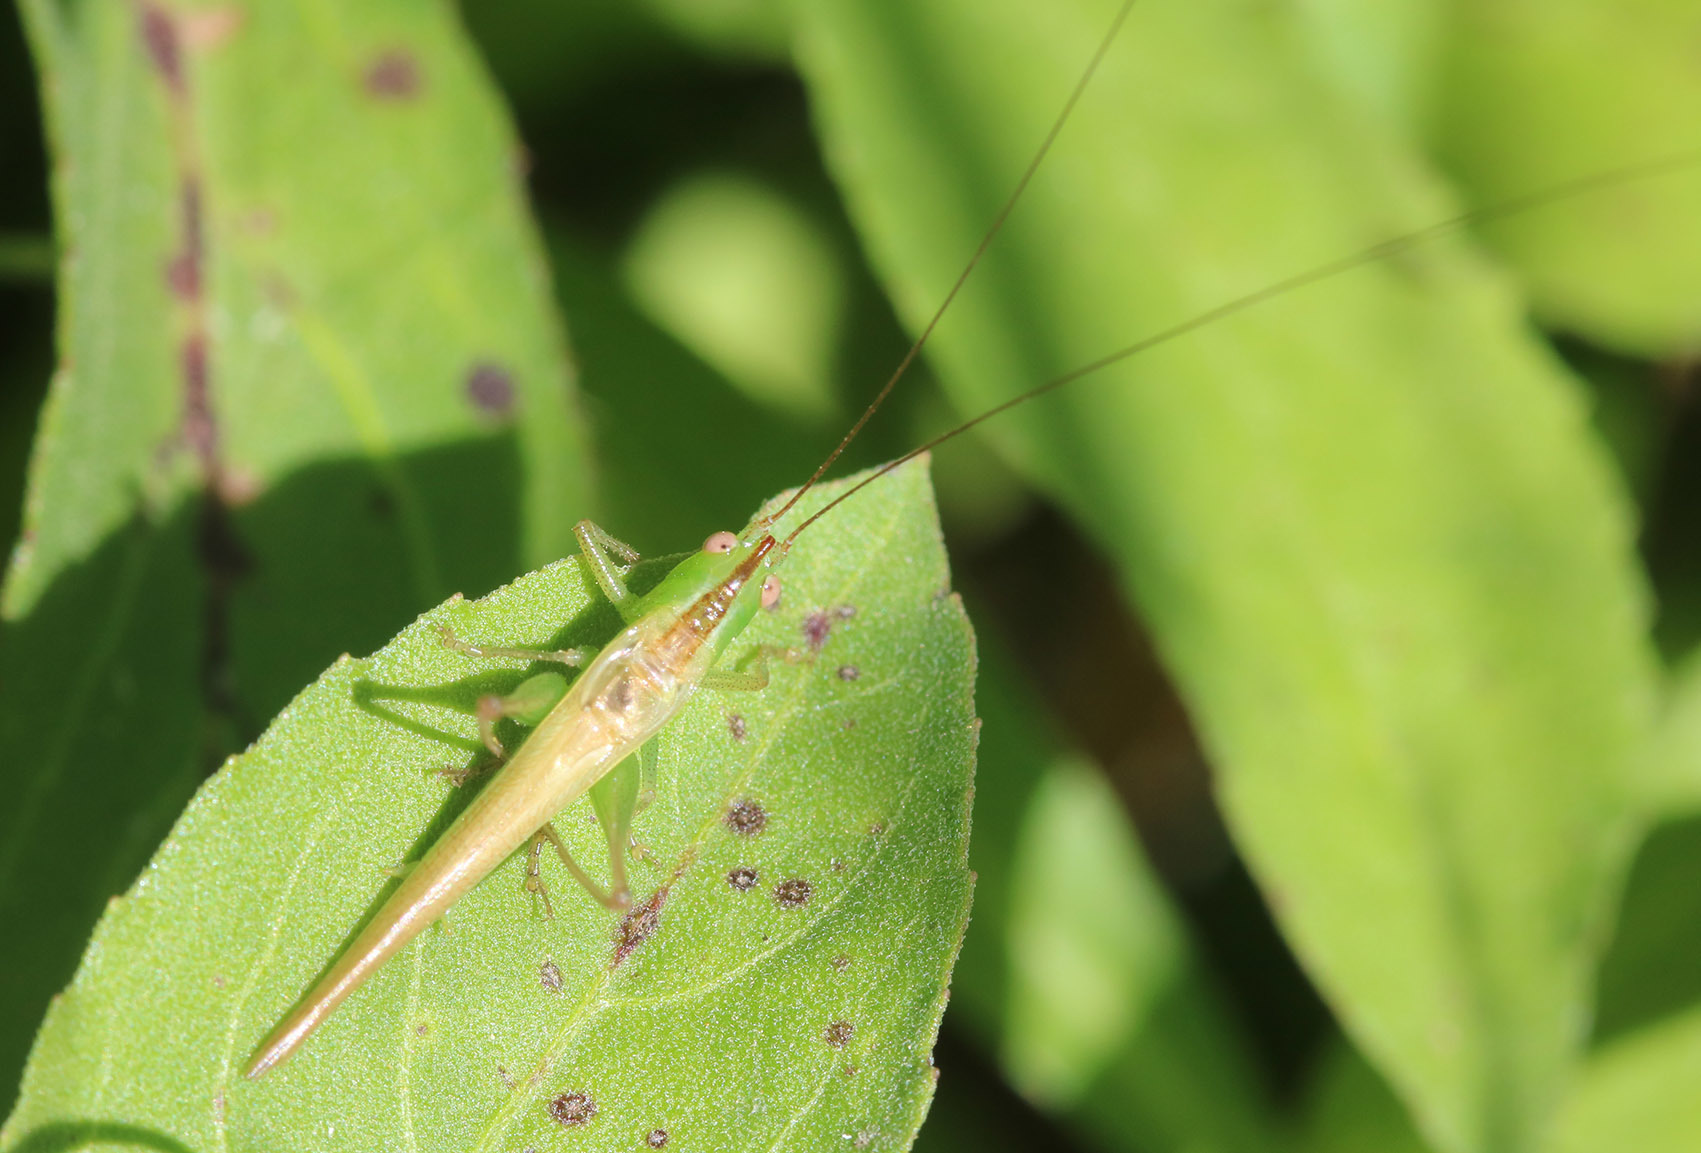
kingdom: Animalia
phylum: Arthropoda
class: Insecta
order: Orthoptera
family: Tettigoniidae
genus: Conocephalus
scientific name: Conocephalus longipes
